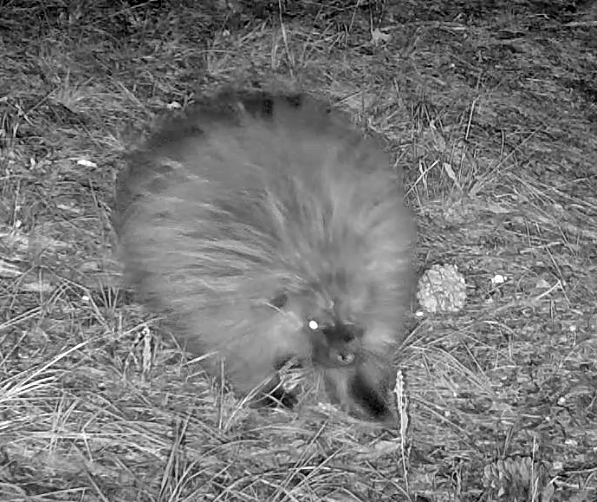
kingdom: Animalia
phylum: Chordata
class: Mammalia
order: Rodentia
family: Erethizontidae
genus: Erethizon
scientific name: Erethizon dorsatus
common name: North american porcupine
